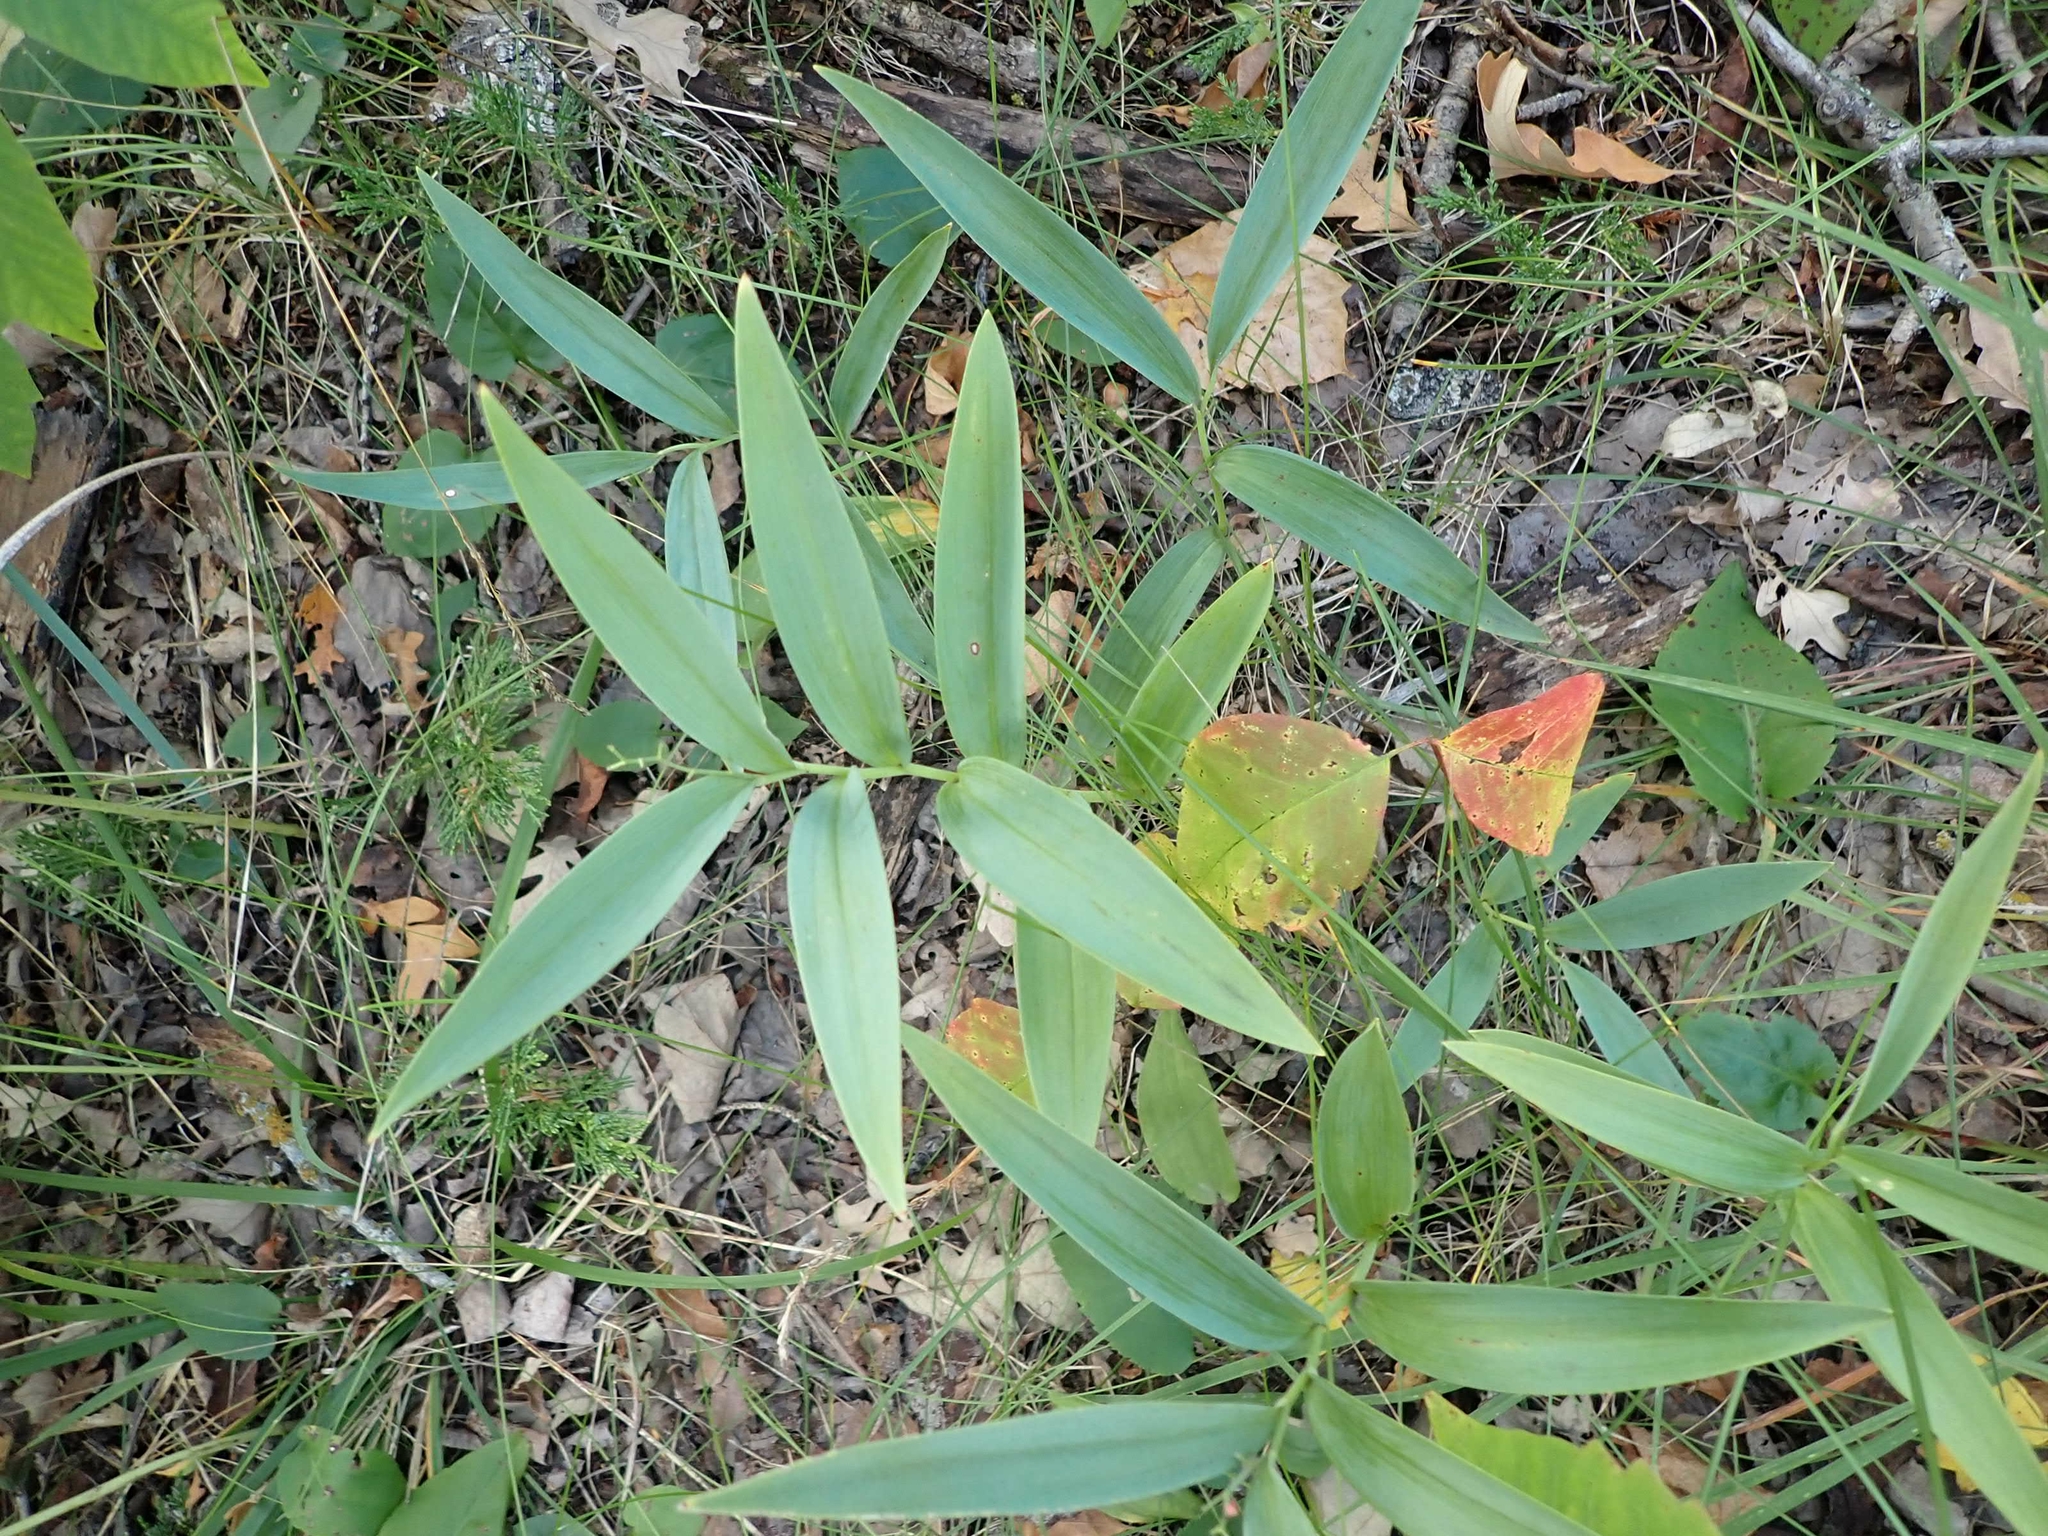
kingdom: Plantae
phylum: Tracheophyta
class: Liliopsida
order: Asparagales
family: Asparagaceae
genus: Maianthemum
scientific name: Maianthemum stellatum
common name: Little false solomon's seal
